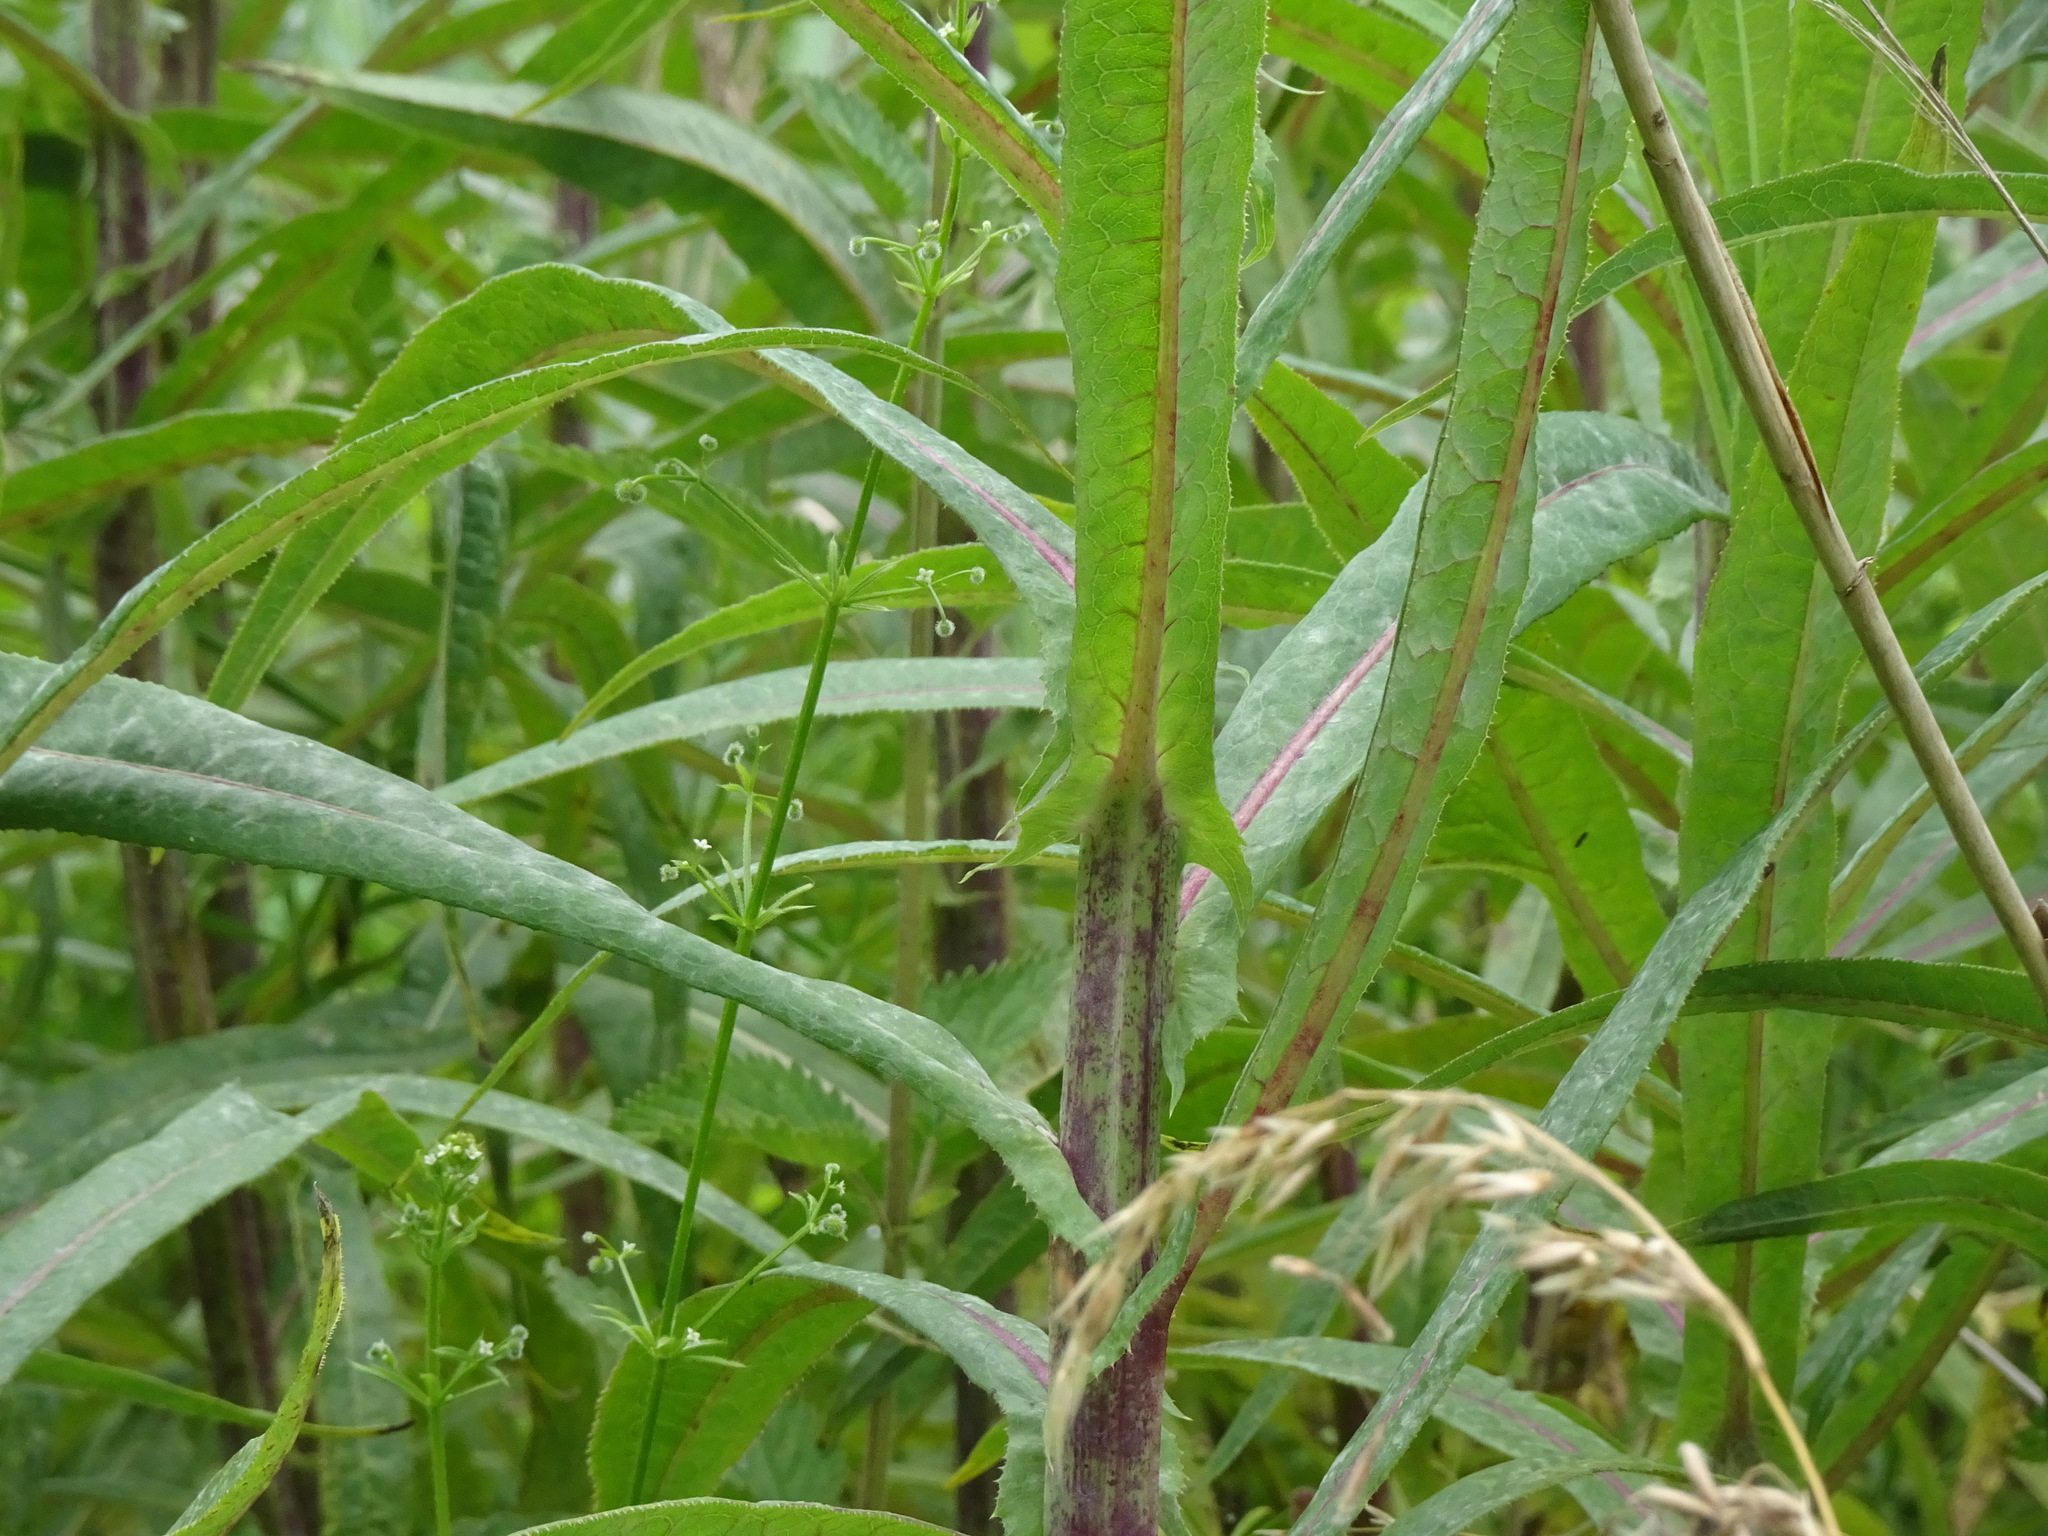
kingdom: Plantae
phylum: Tracheophyta
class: Magnoliopsida
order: Asterales
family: Asteraceae
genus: Sonchus
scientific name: Sonchus palustris
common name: Marsh sow-thistle
